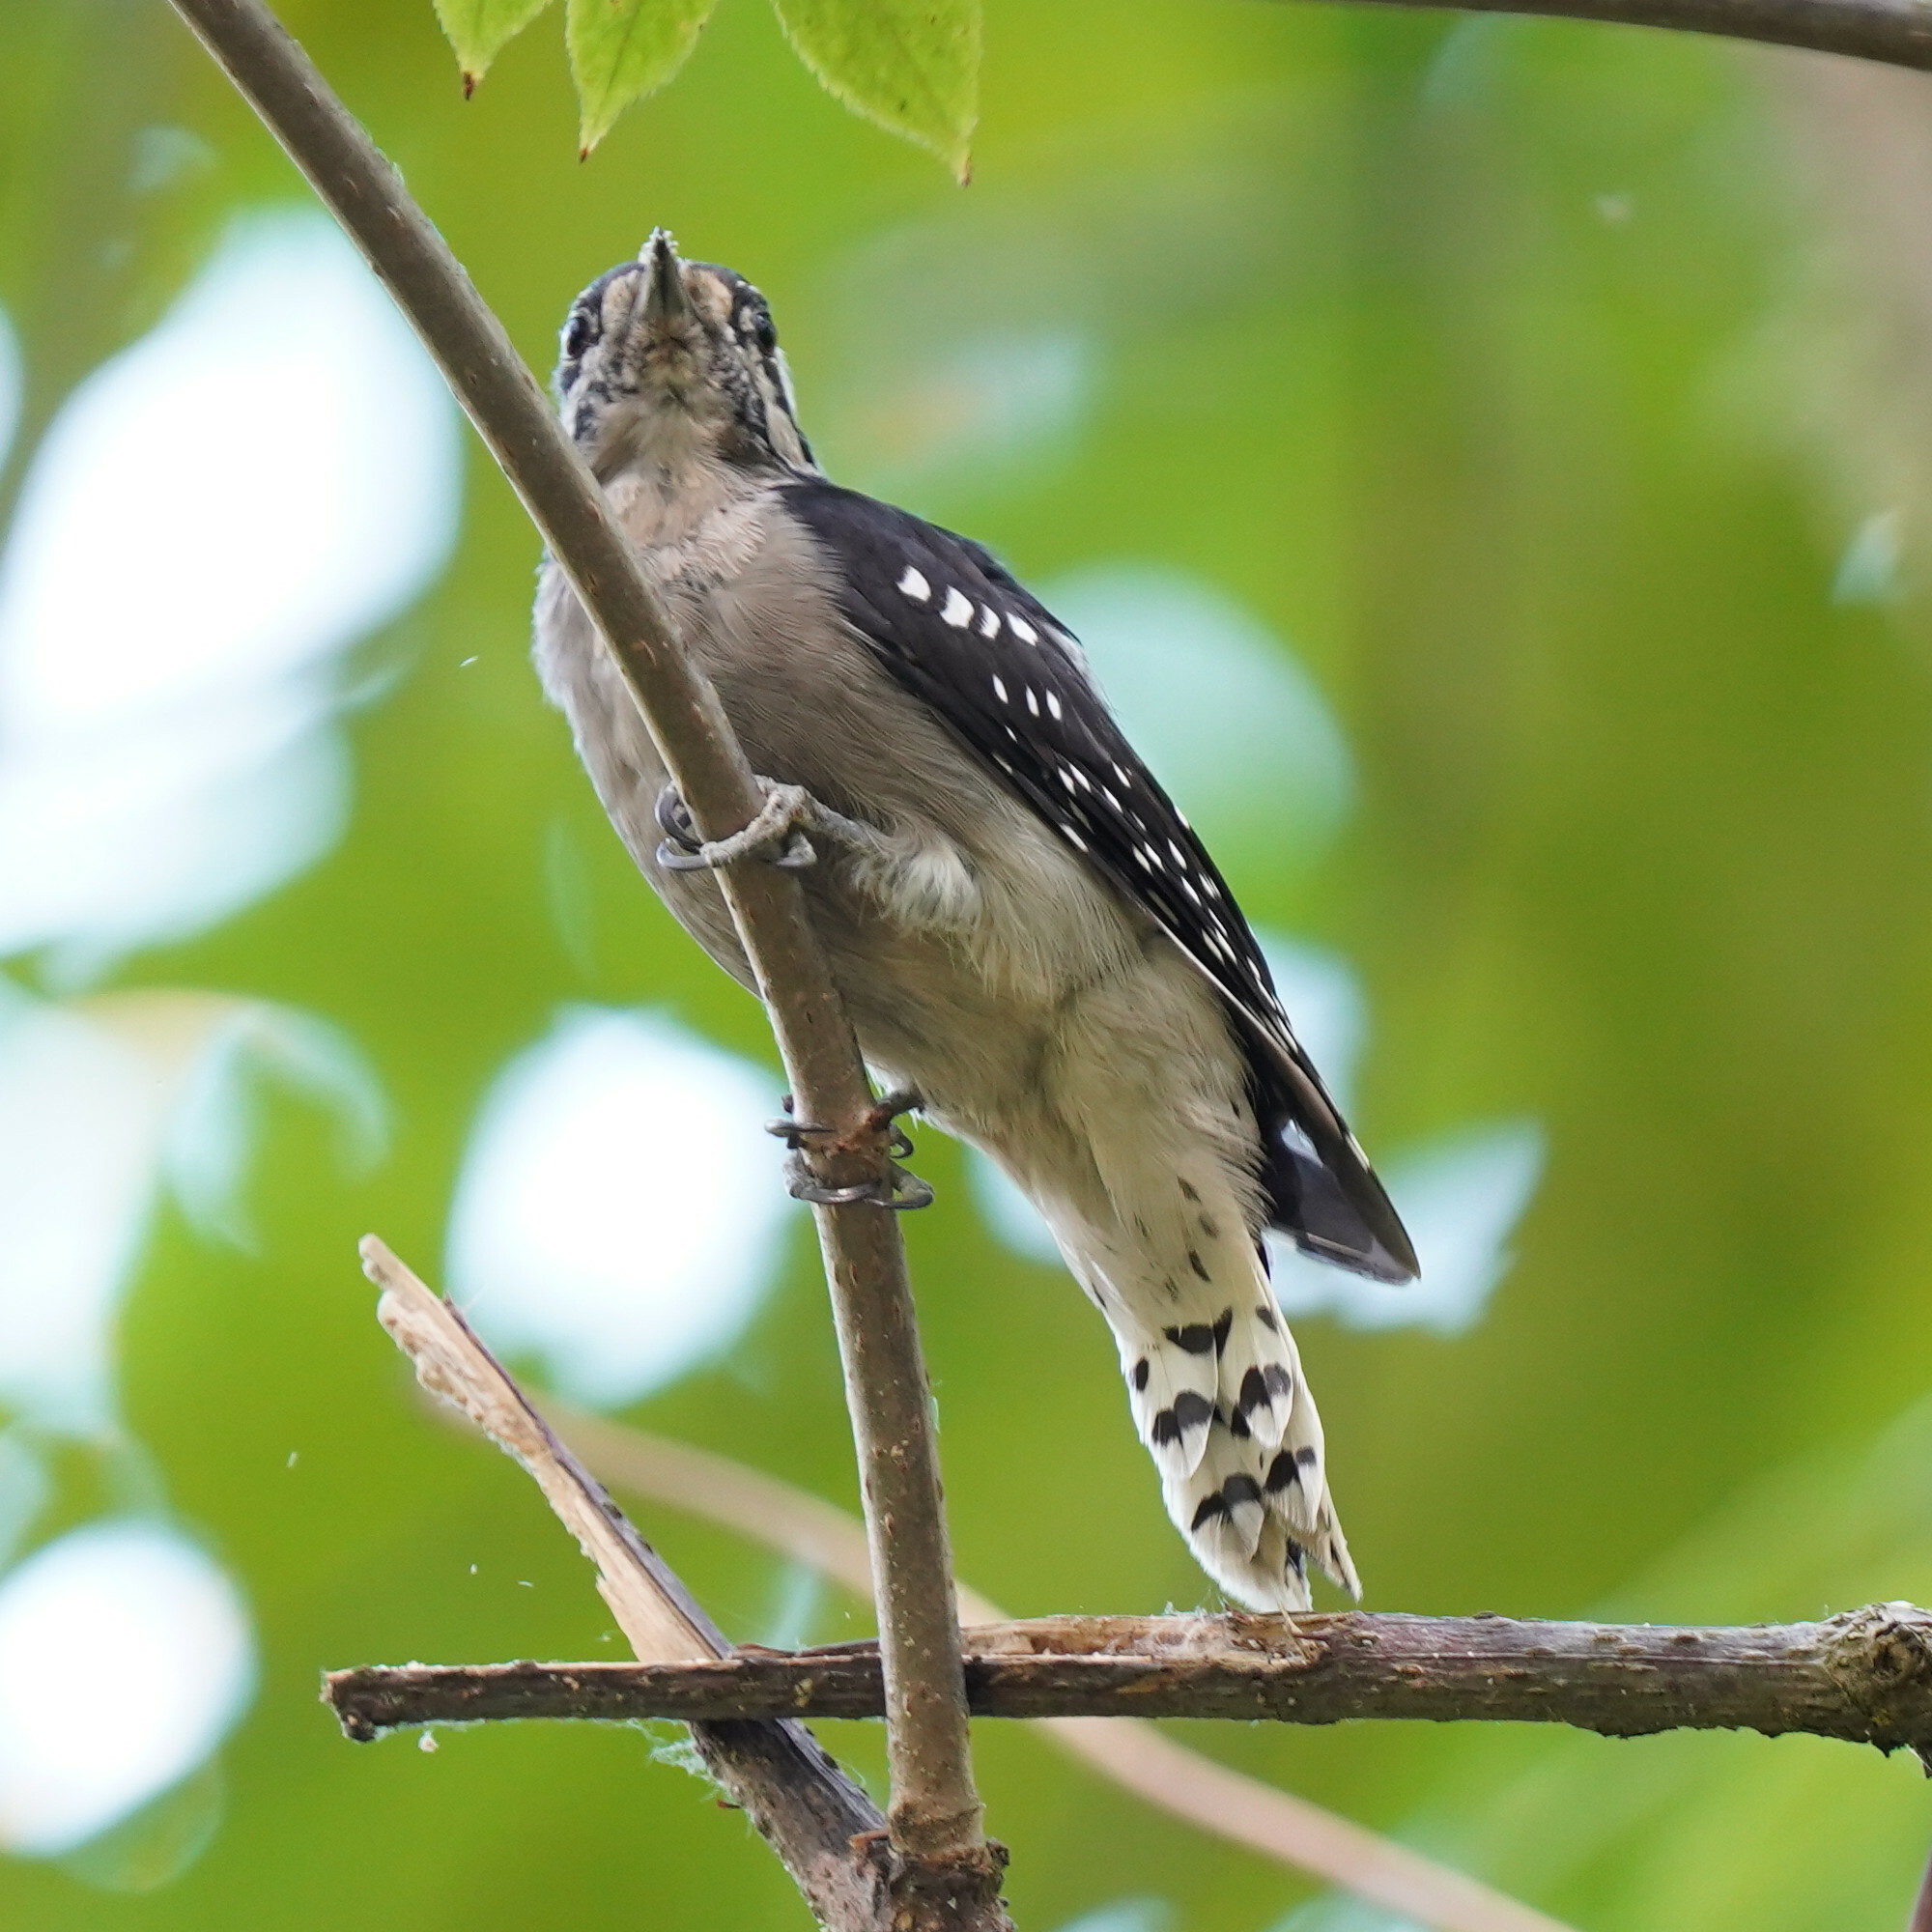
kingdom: Animalia
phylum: Chordata
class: Aves
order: Piciformes
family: Picidae
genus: Dryobates
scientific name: Dryobates pubescens
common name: Downy woodpecker
